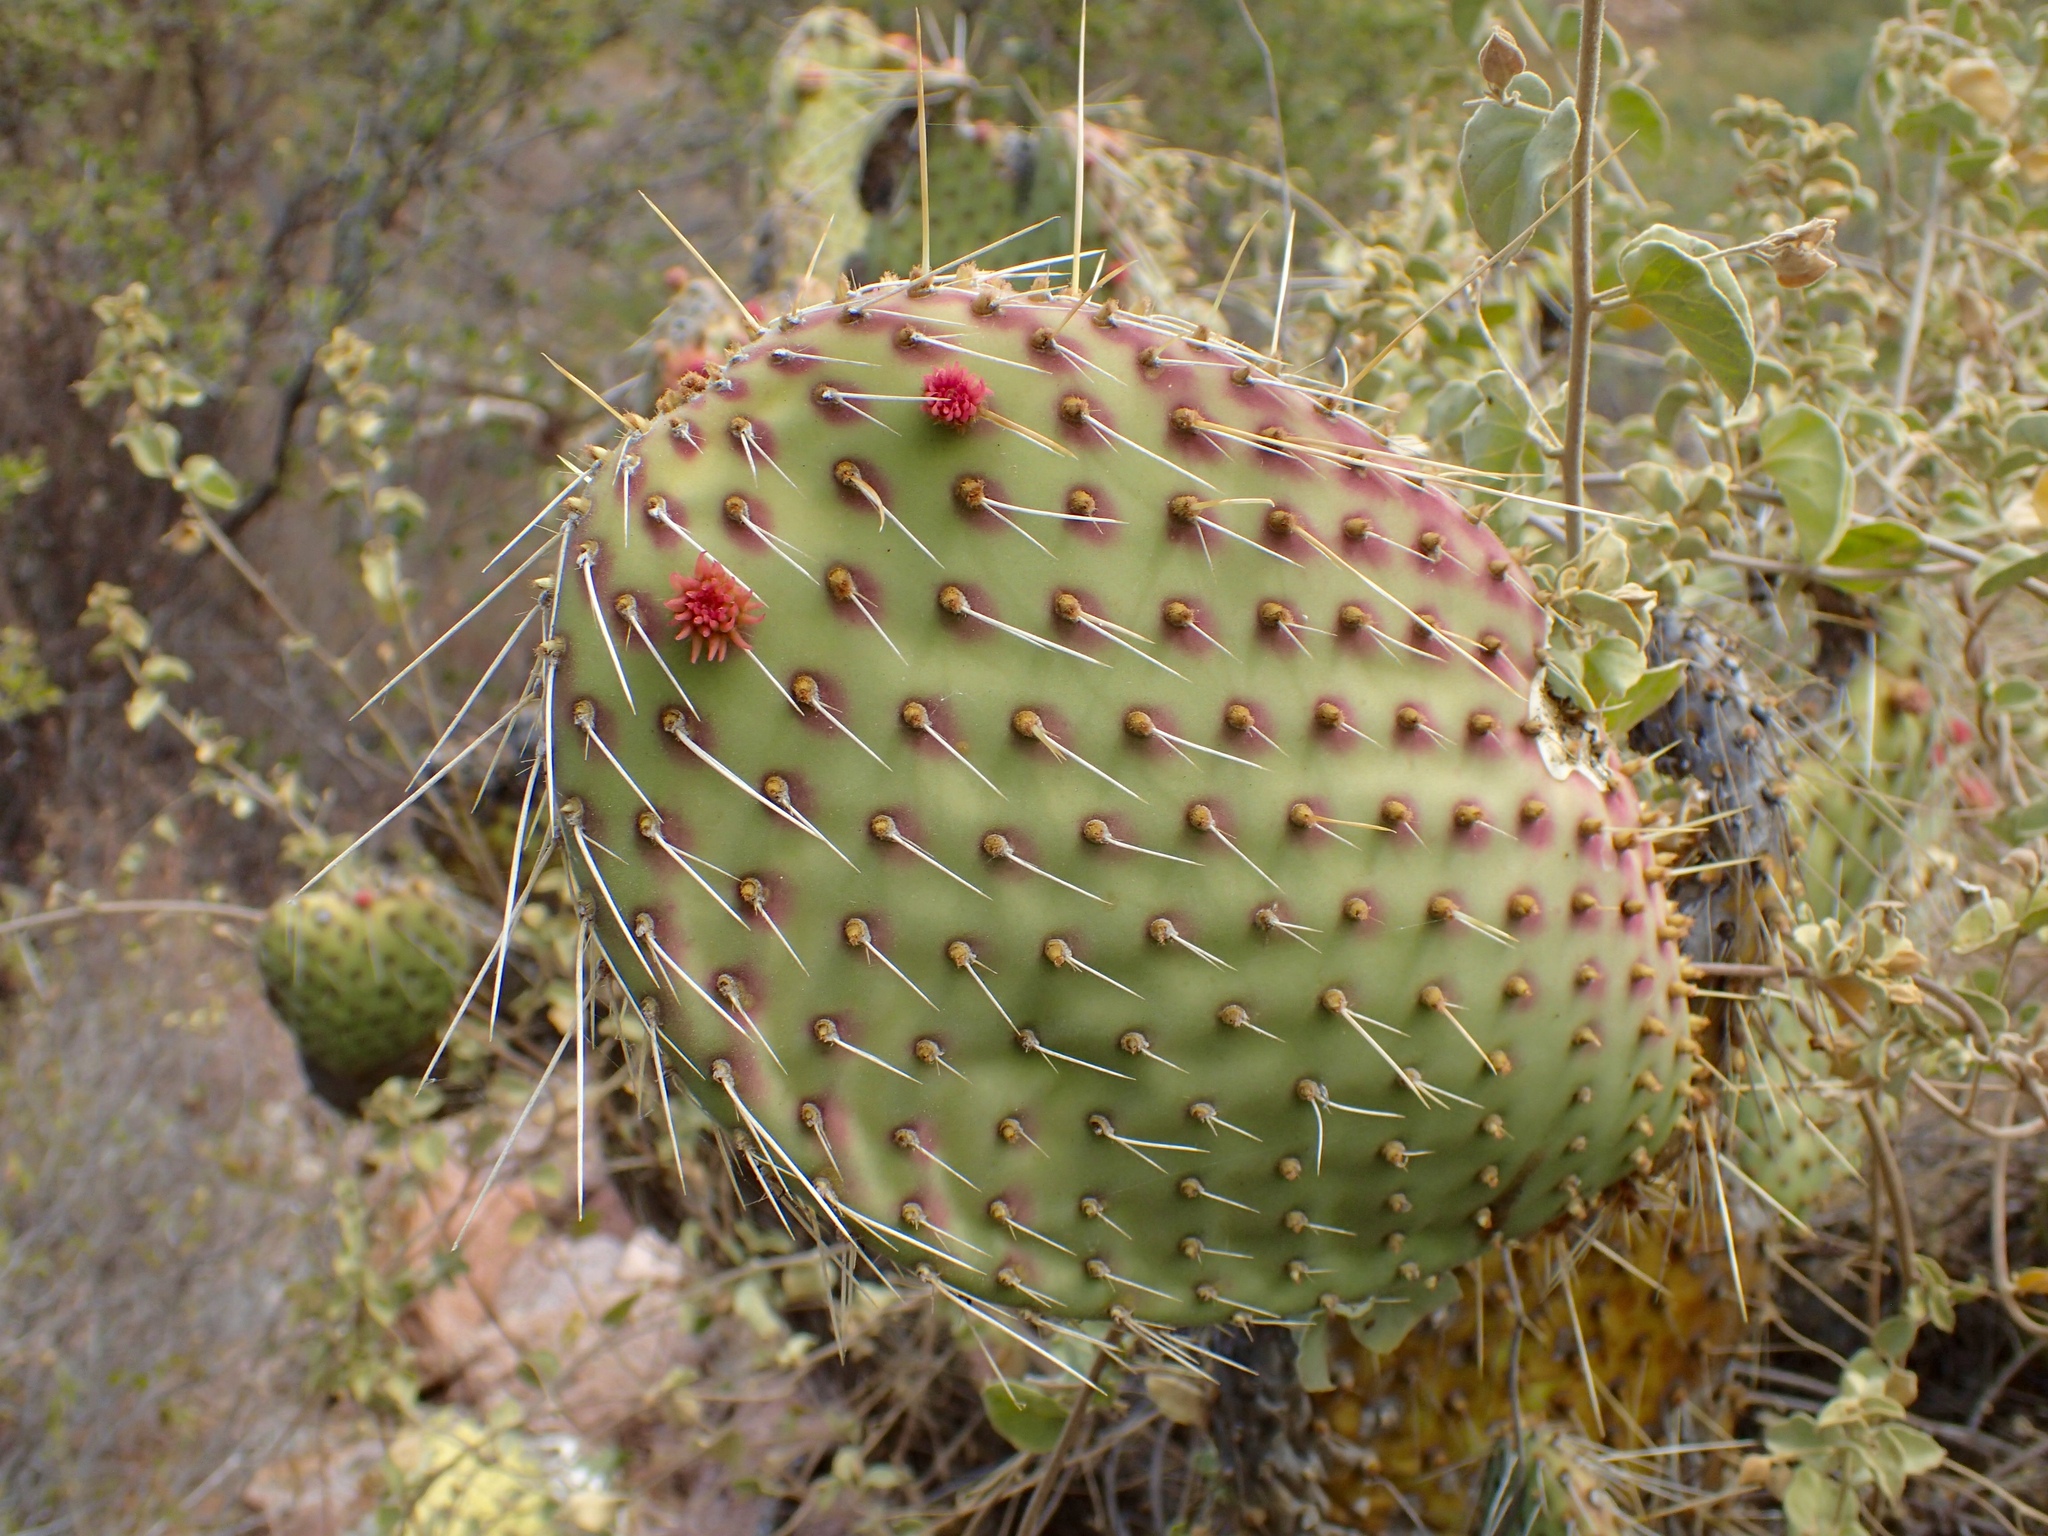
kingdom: Plantae
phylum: Tracheophyta
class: Magnoliopsida
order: Caryophyllales
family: Cactaceae
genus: Opuntia
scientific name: Opuntia tapona
